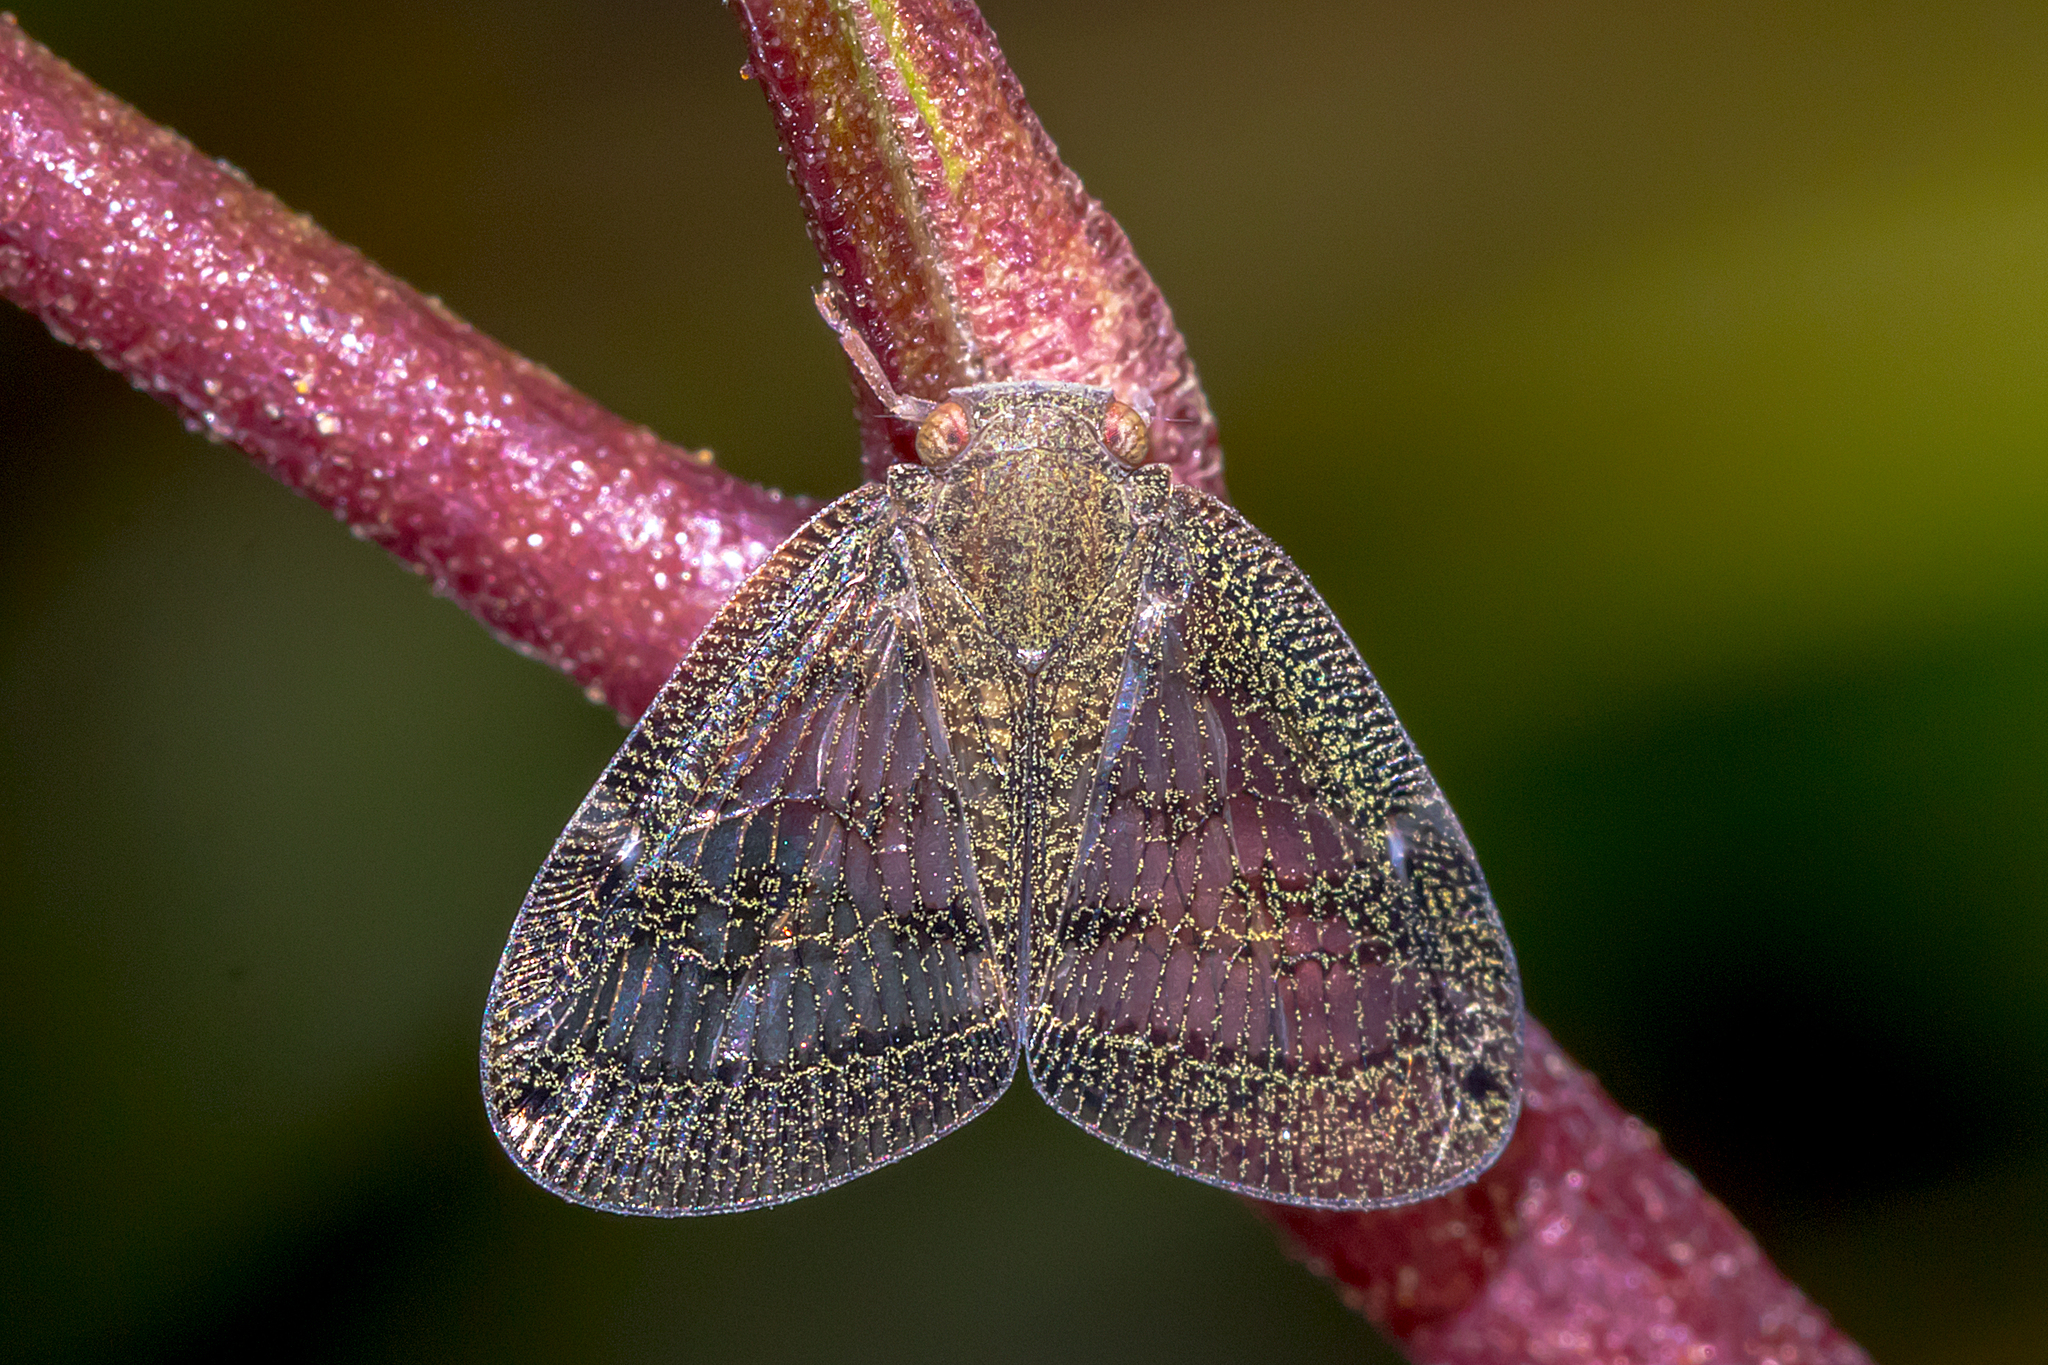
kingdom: Animalia
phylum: Arthropoda
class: Insecta
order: Hemiptera
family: Ricaniidae
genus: Scolypopa
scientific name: Scolypopa australis
